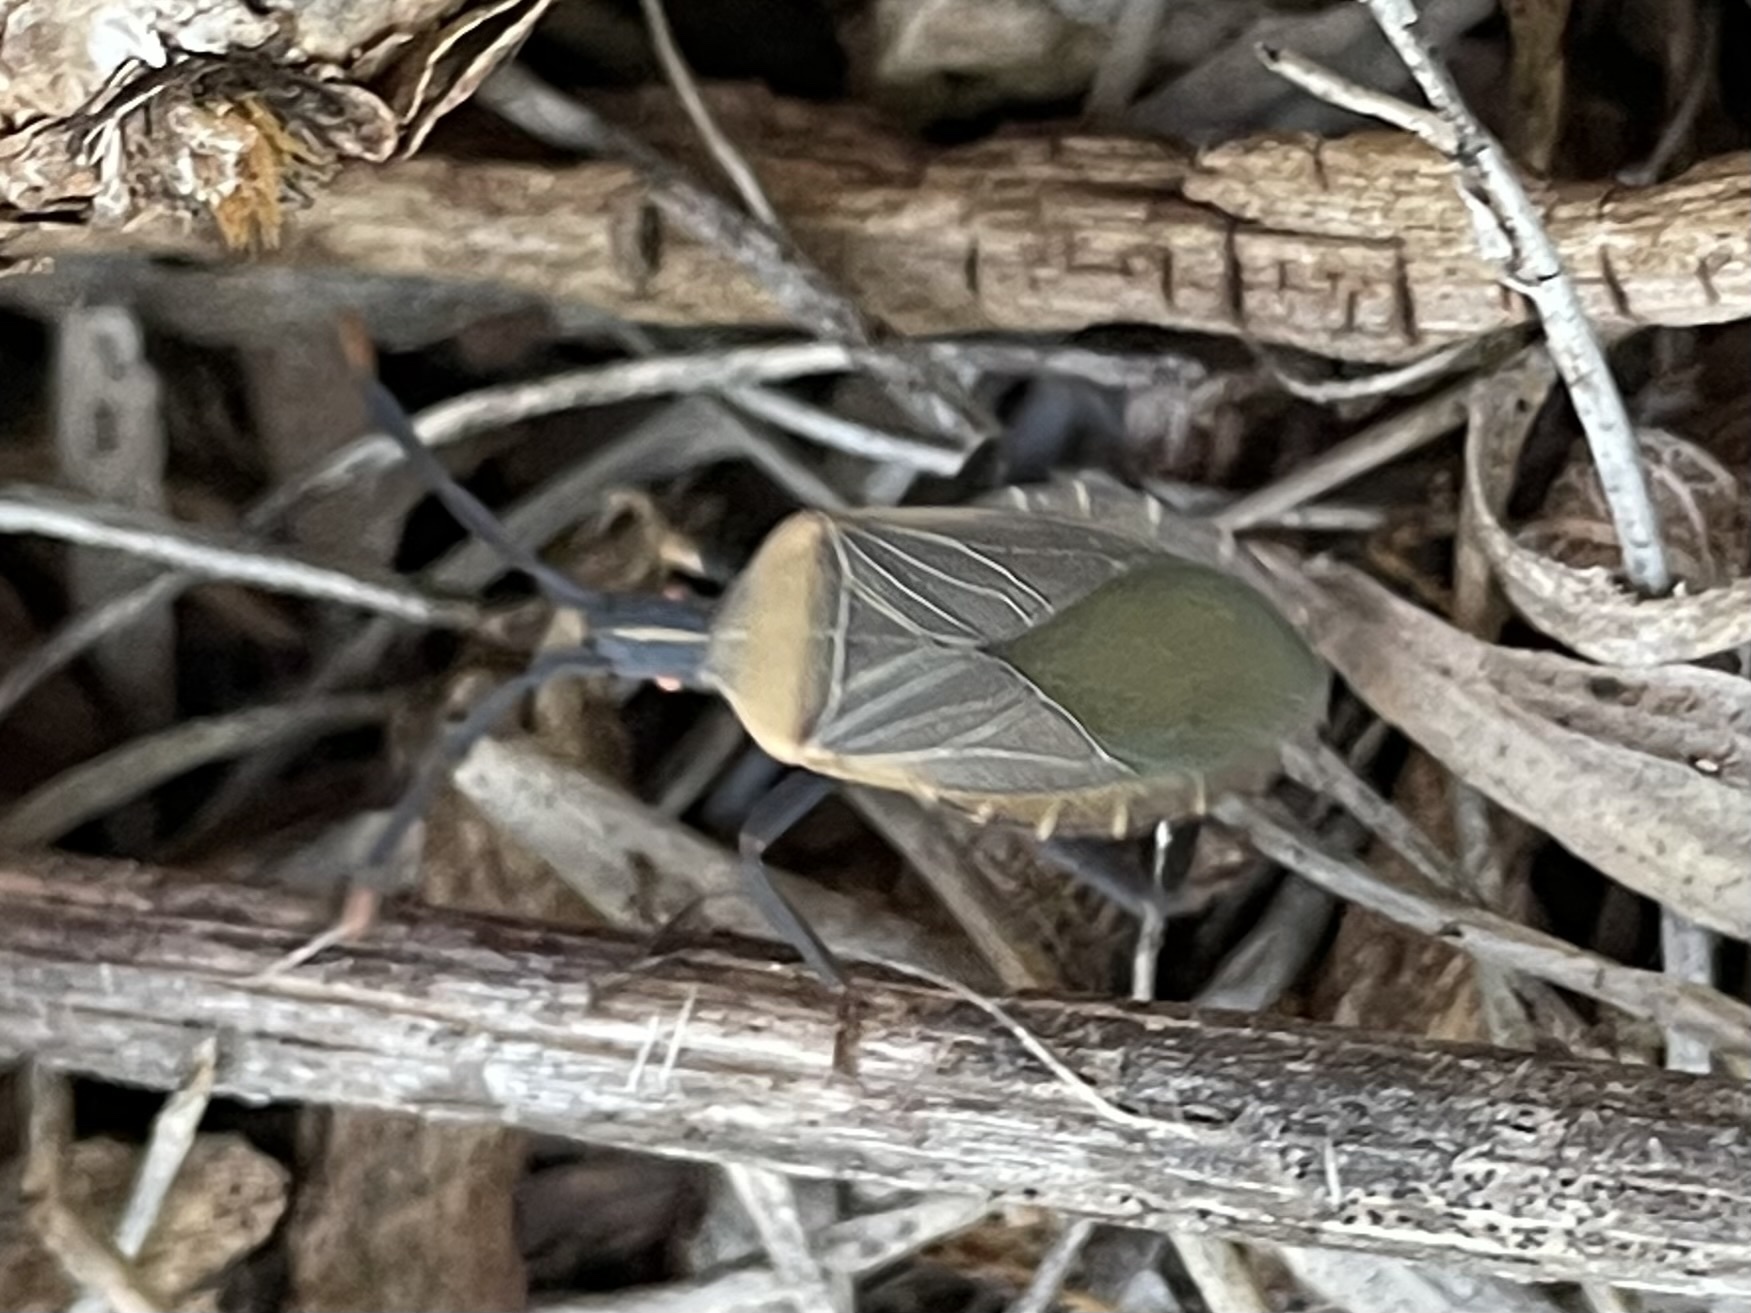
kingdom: Animalia
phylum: Arthropoda
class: Insecta
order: Hemiptera
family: Coreidae
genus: Chelinidea
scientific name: Chelinidea vittiger
